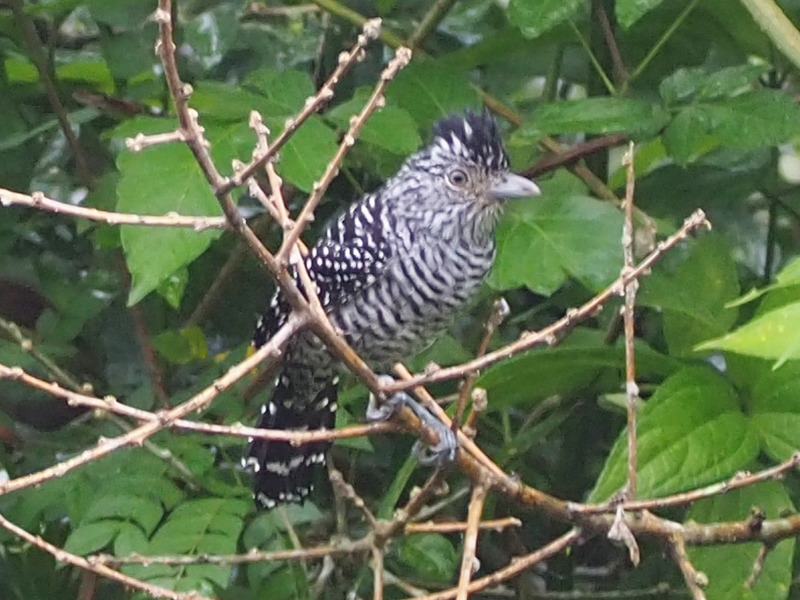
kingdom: Animalia
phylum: Chordata
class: Aves
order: Passeriformes
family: Thamnophilidae
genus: Thamnophilus
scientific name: Thamnophilus doliatus
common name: Barred antshrike
